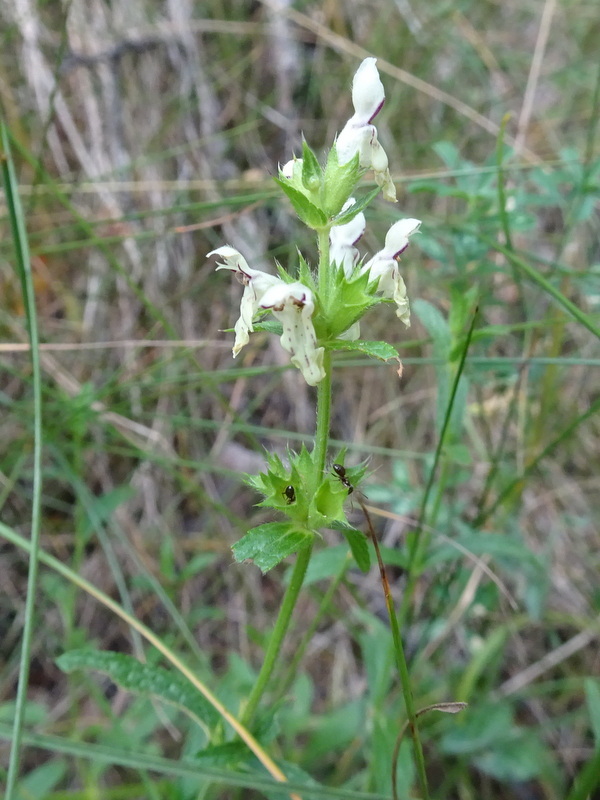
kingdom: Plantae
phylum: Tracheophyta
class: Magnoliopsida
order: Lamiales
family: Lamiaceae
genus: Stachys
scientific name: Stachys recta
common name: Perennial yellow-woundwort
